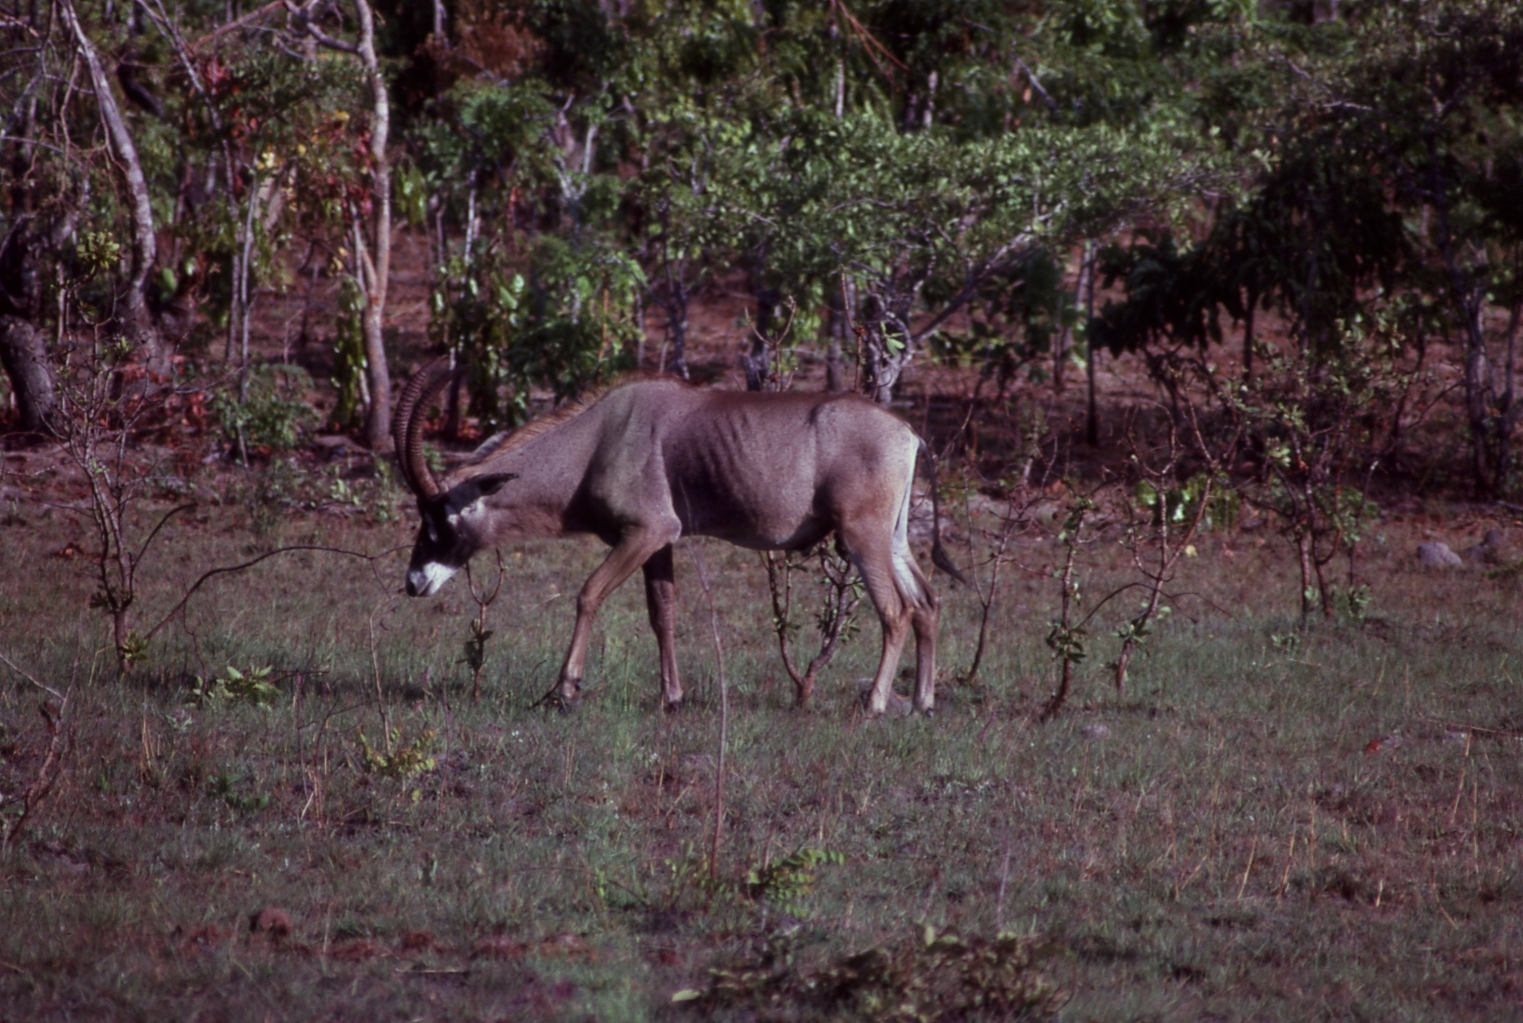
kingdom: Animalia
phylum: Chordata
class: Mammalia
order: Artiodactyla
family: Bovidae
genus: Hippotragus
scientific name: Hippotragus equinus
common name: Roan antelope
